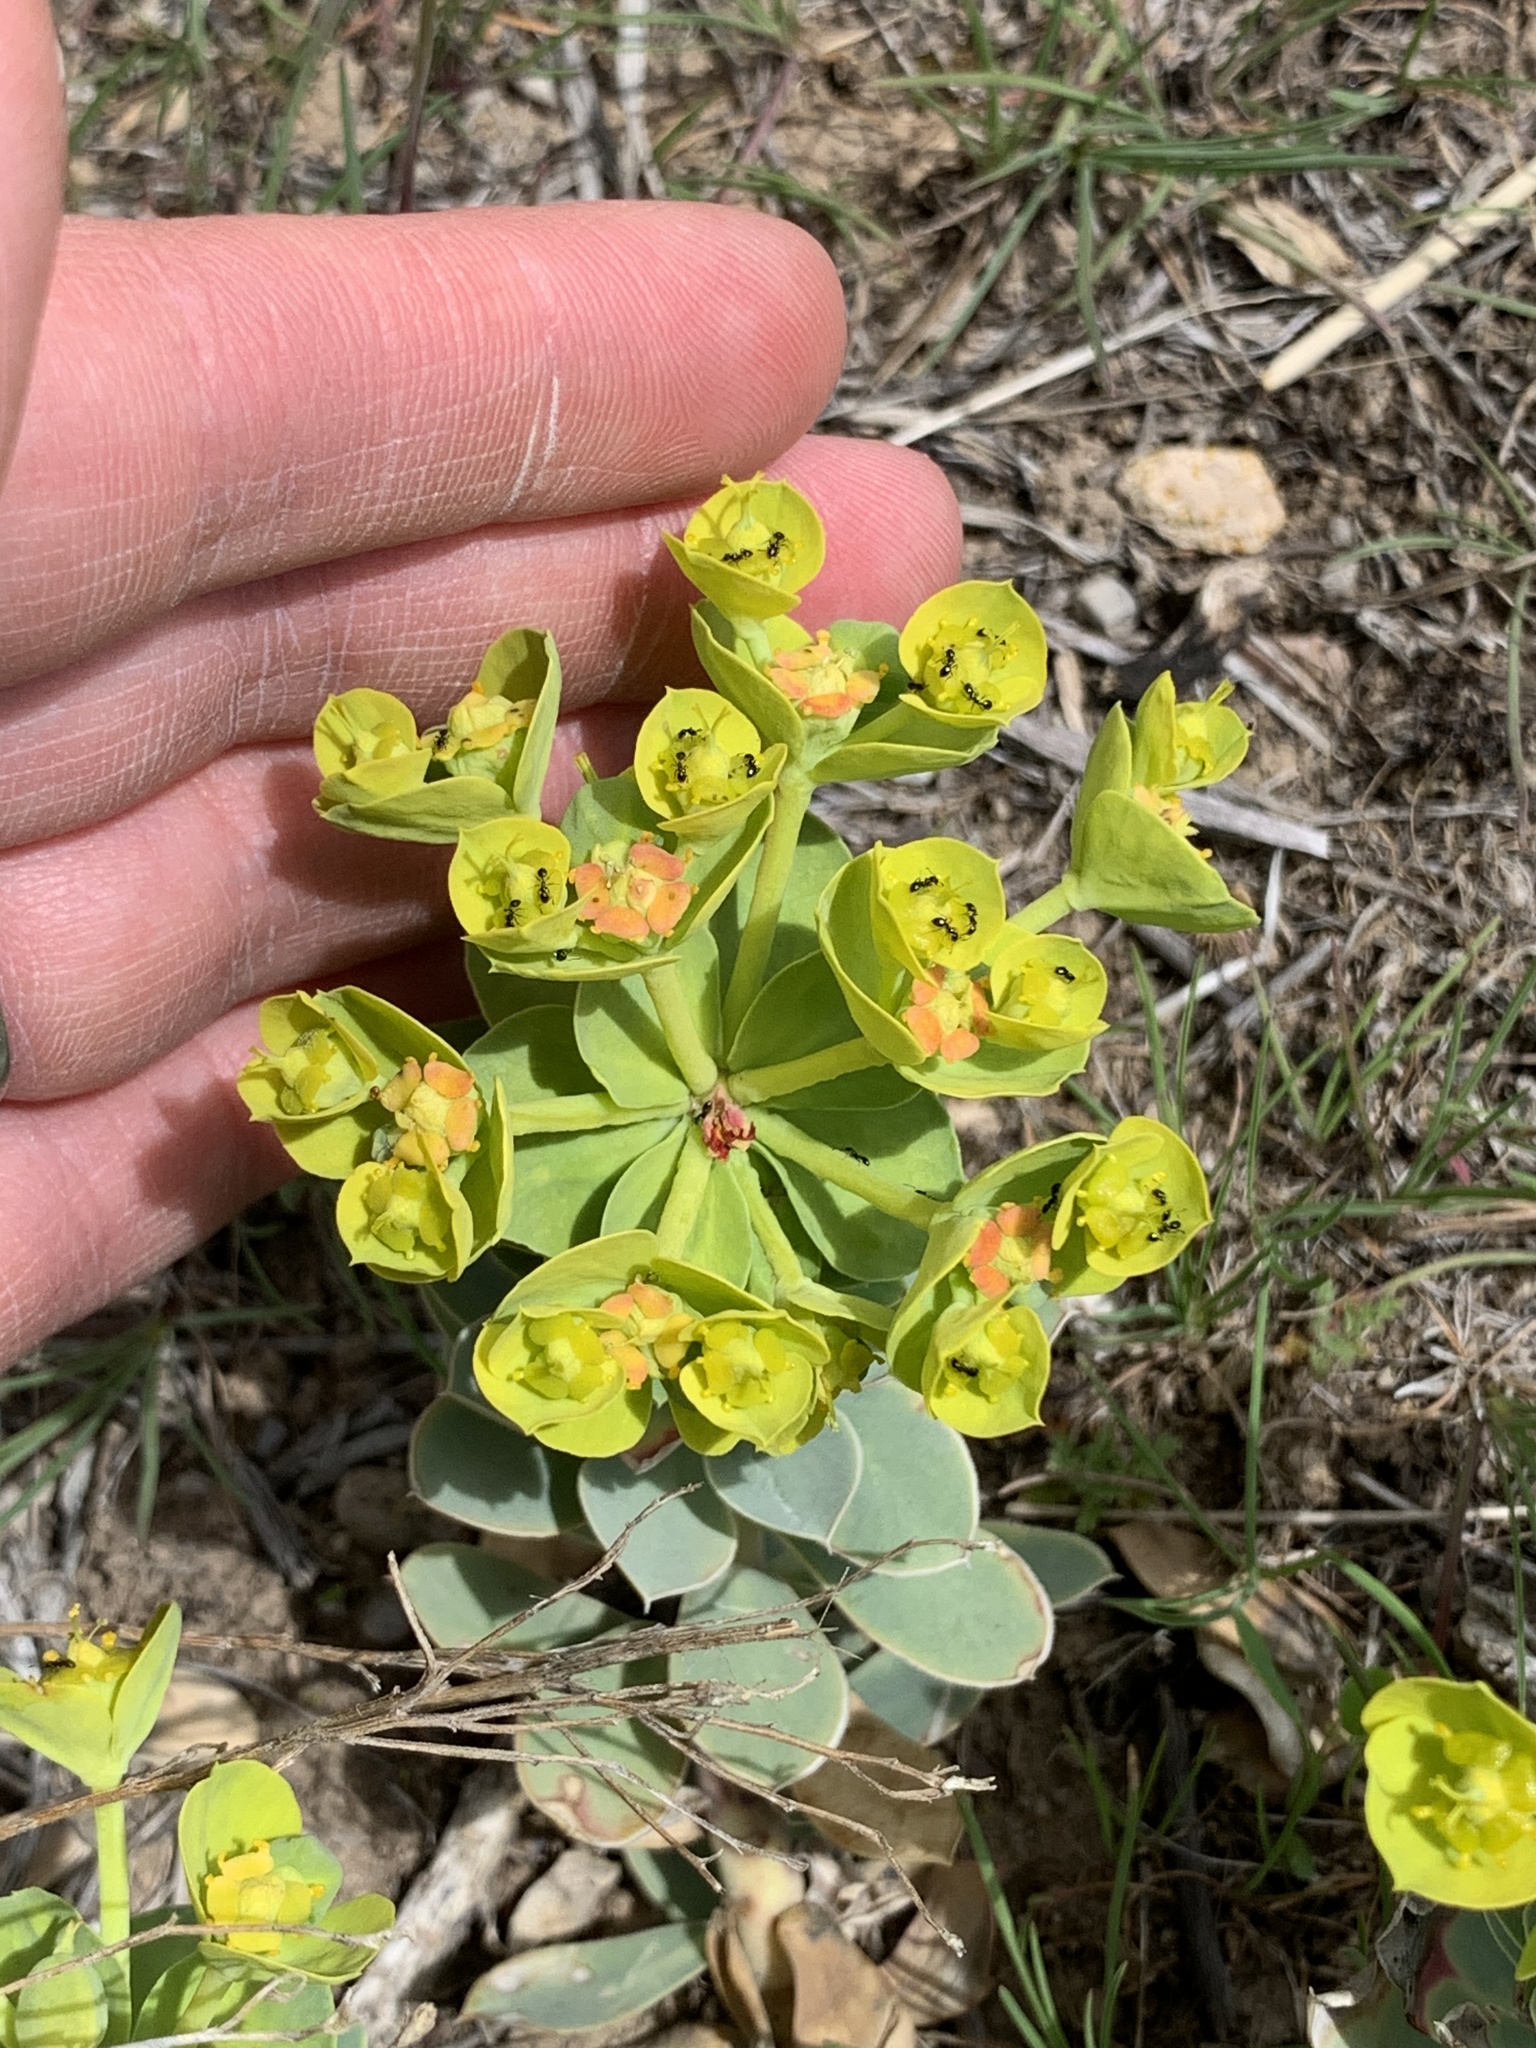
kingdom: Plantae
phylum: Tracheophyta
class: Magnoliopsida
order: Malpighiales
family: Euphorbiaceae
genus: Euphorbia
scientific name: Euphorbia myrsinites
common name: Myrtle spurge
